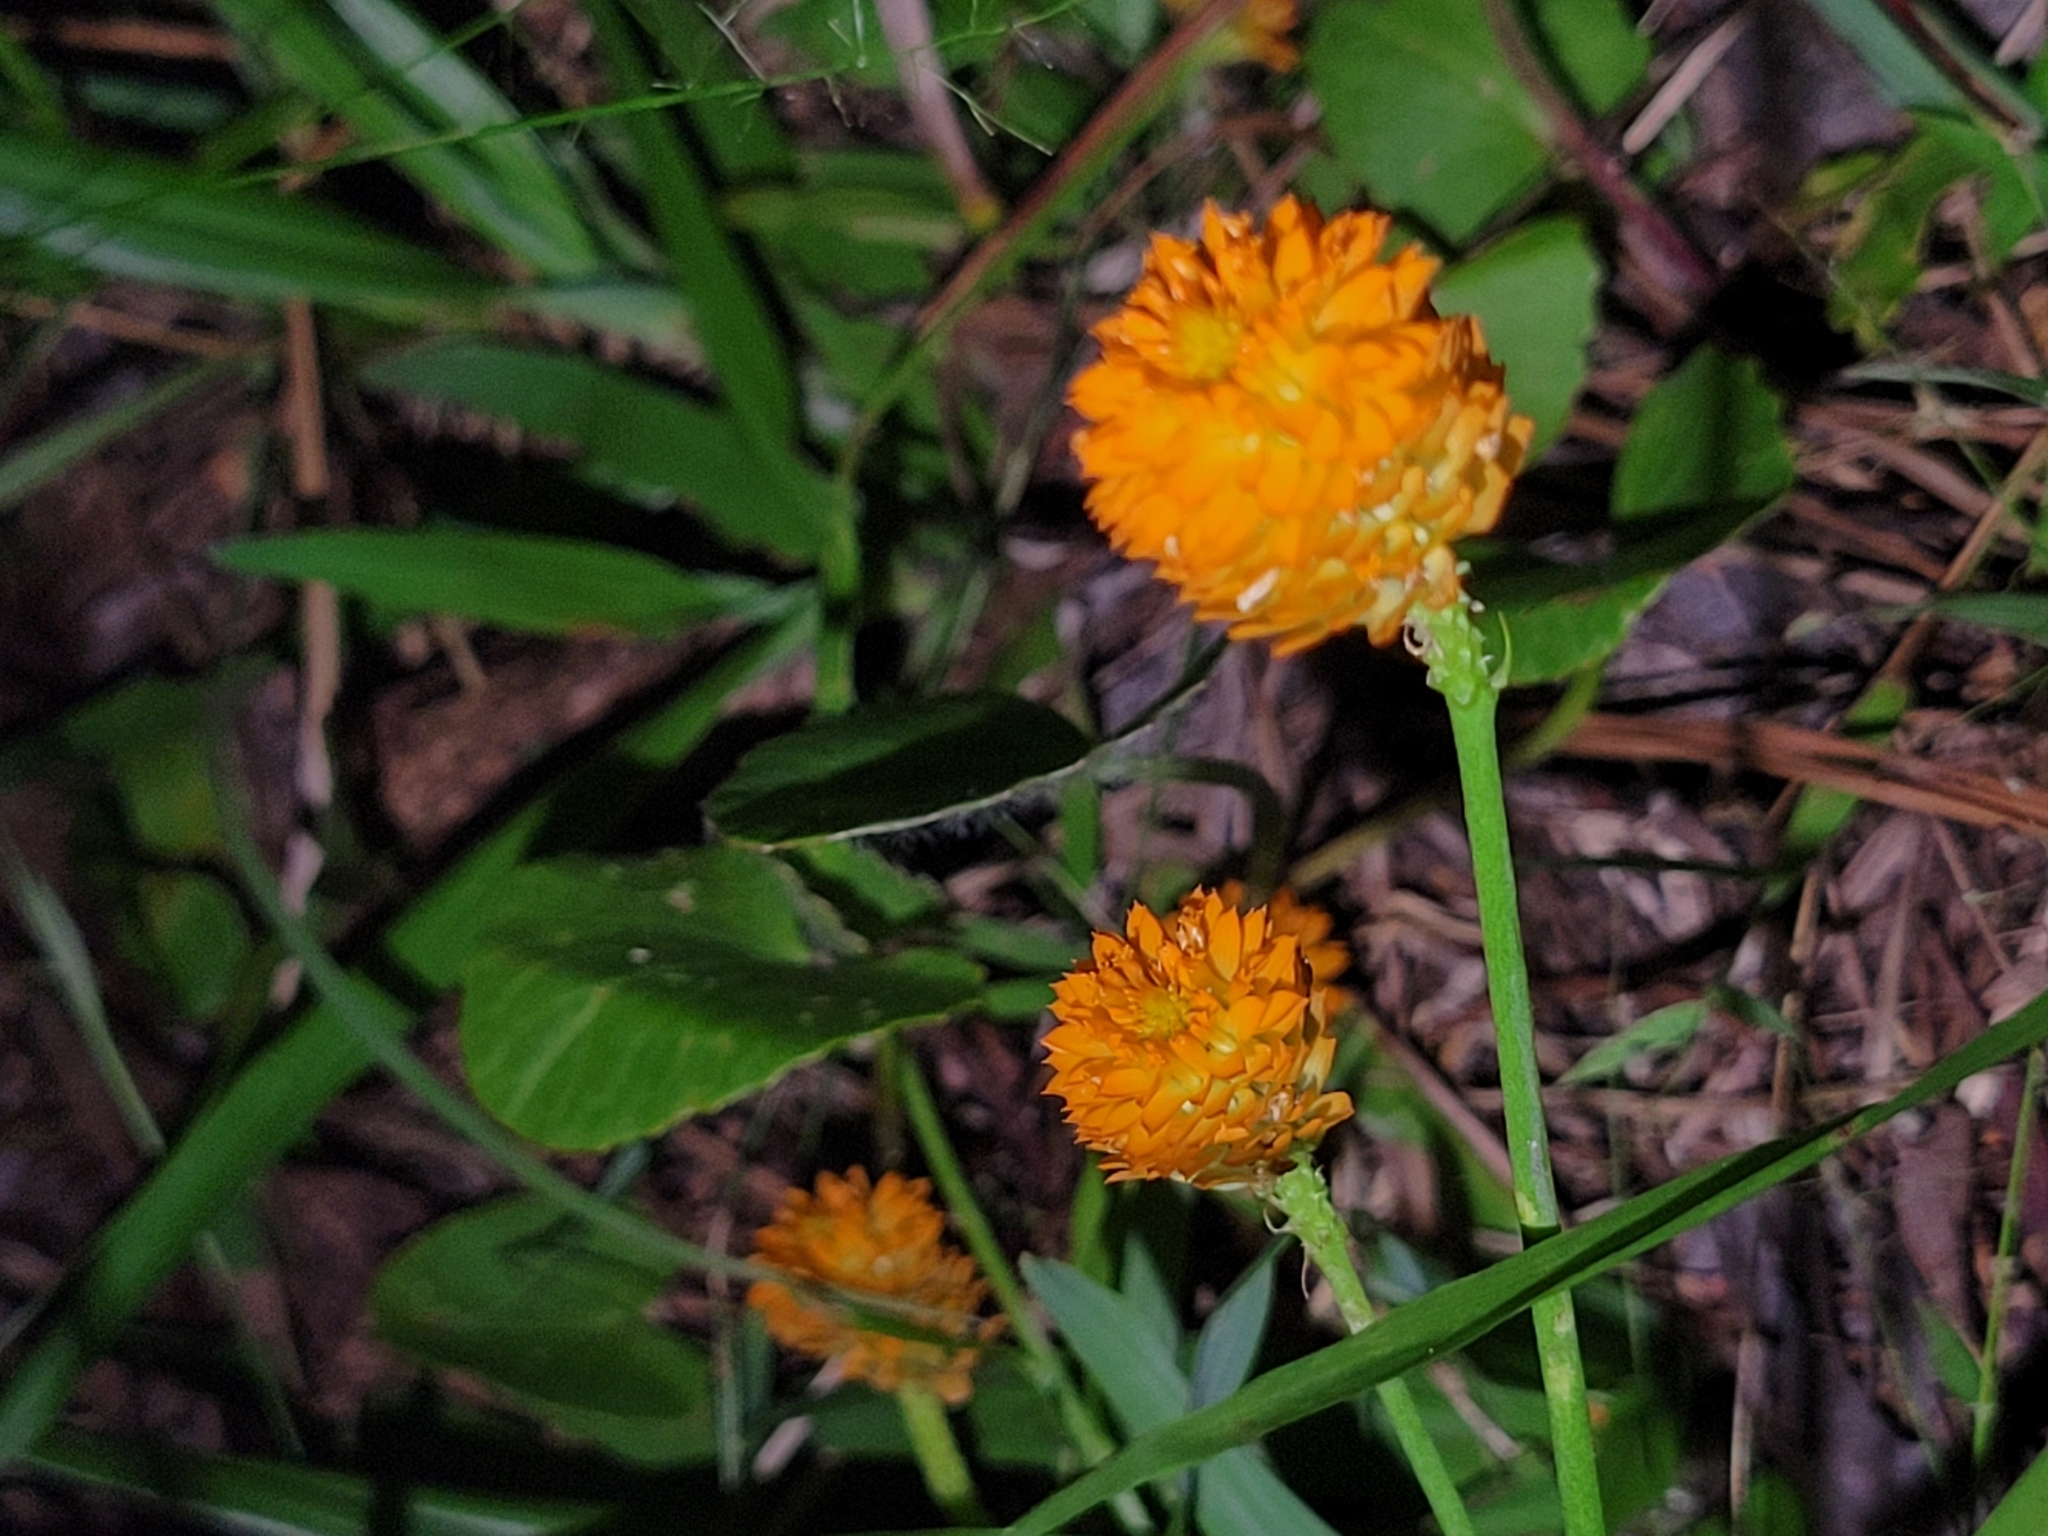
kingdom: Plantae
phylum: Tracheophyta
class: Magnoliopsida
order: Fabales
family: Polygalaceae
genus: Polygala
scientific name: Polygala lutea
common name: Orange milkwort
